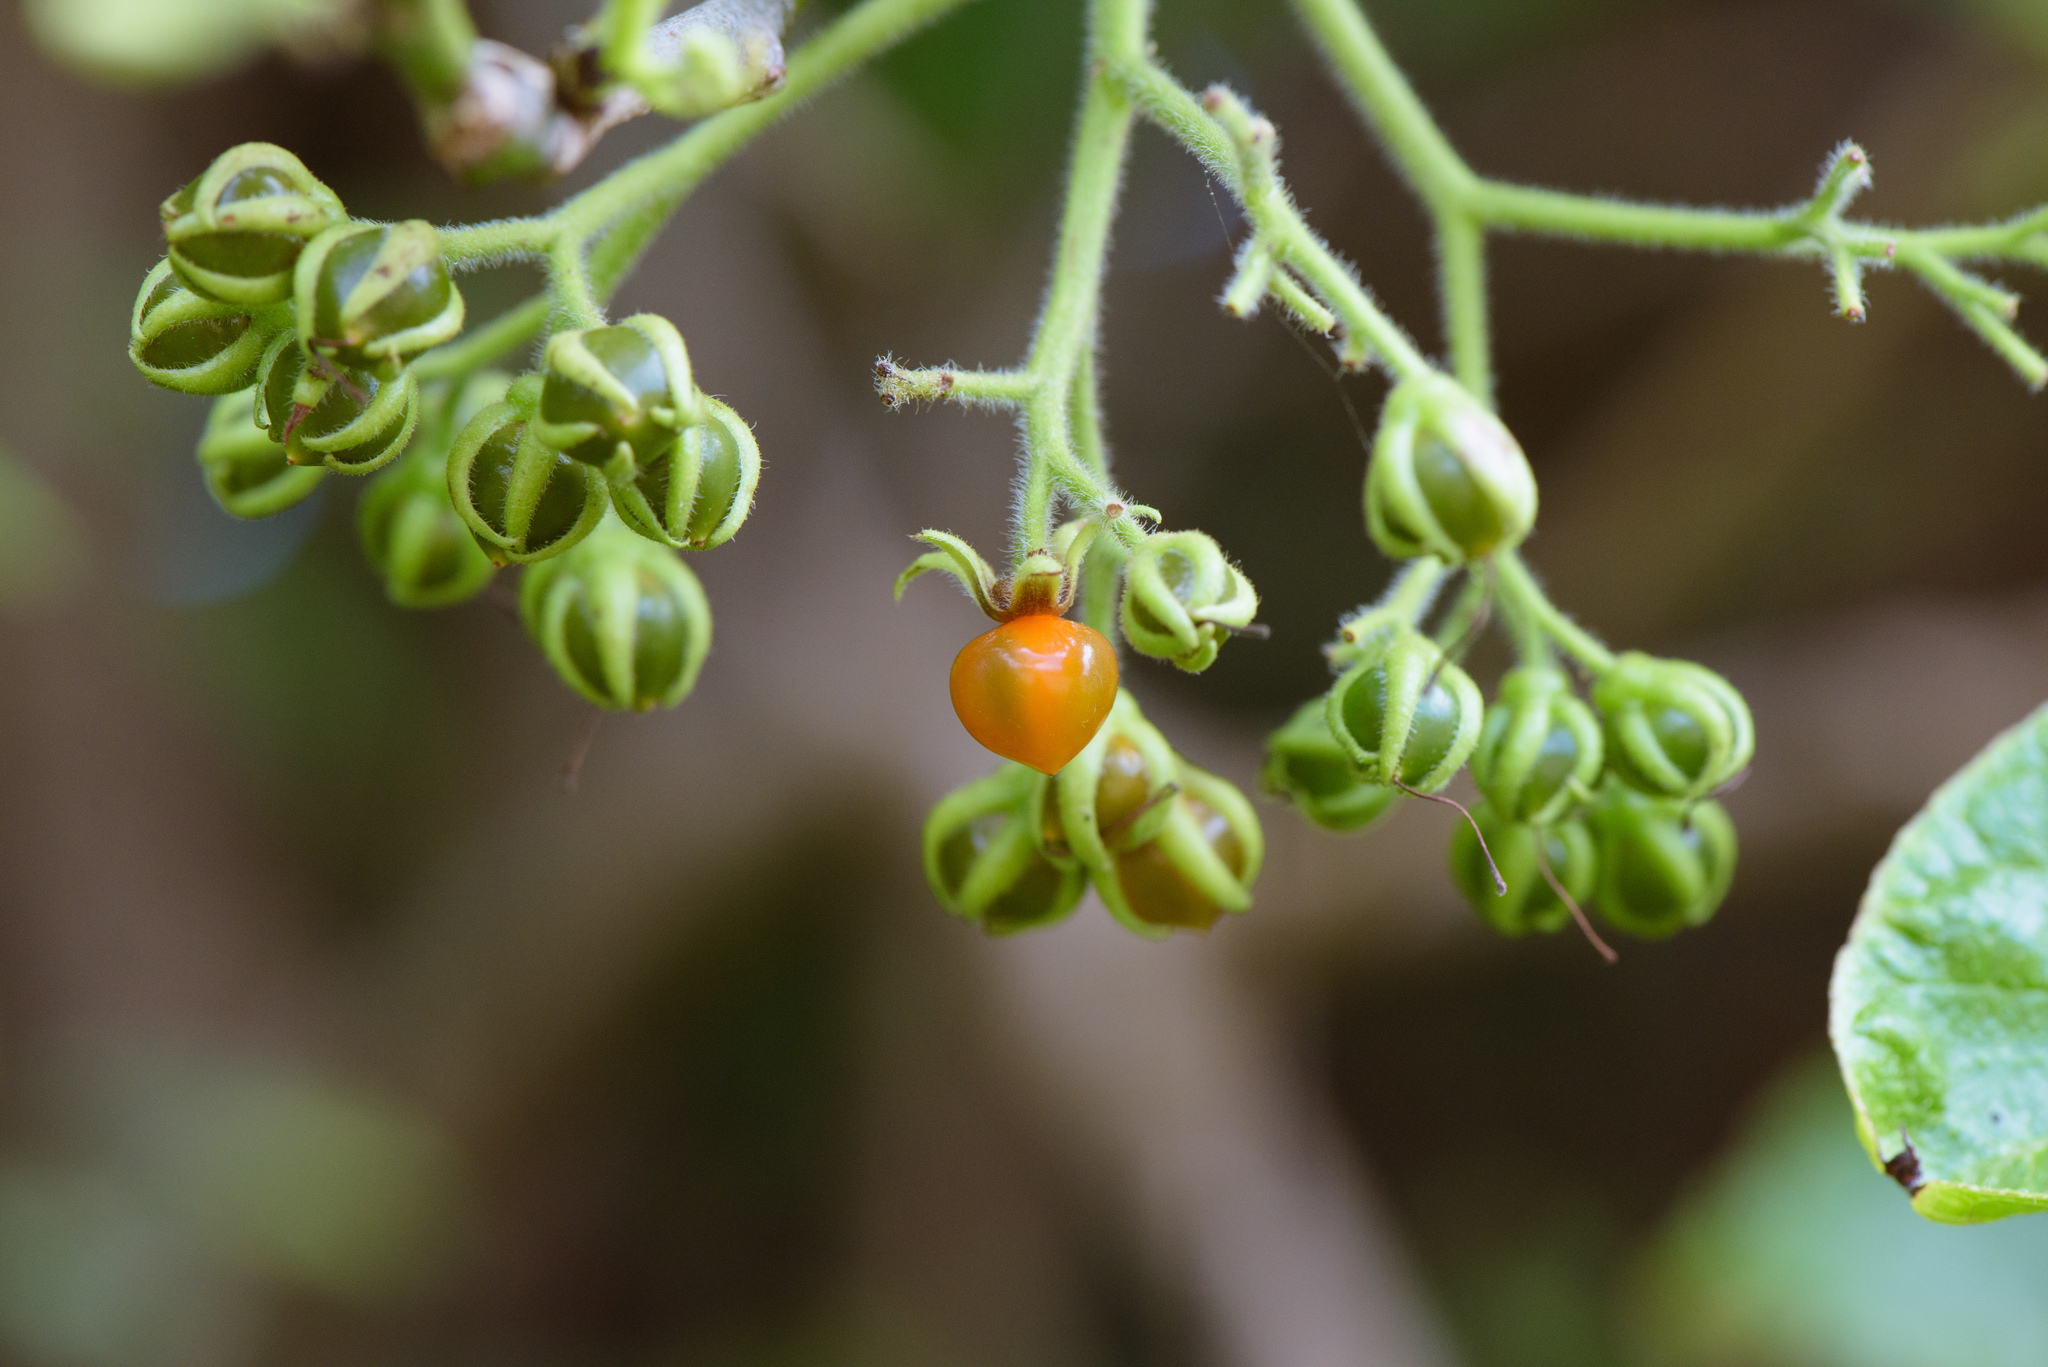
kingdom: Plantae
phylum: Tracheophyta
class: Magnoliopsida
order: Boraginales
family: Ehretiaceae
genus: Ehretia
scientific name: Ehretia resinosa
